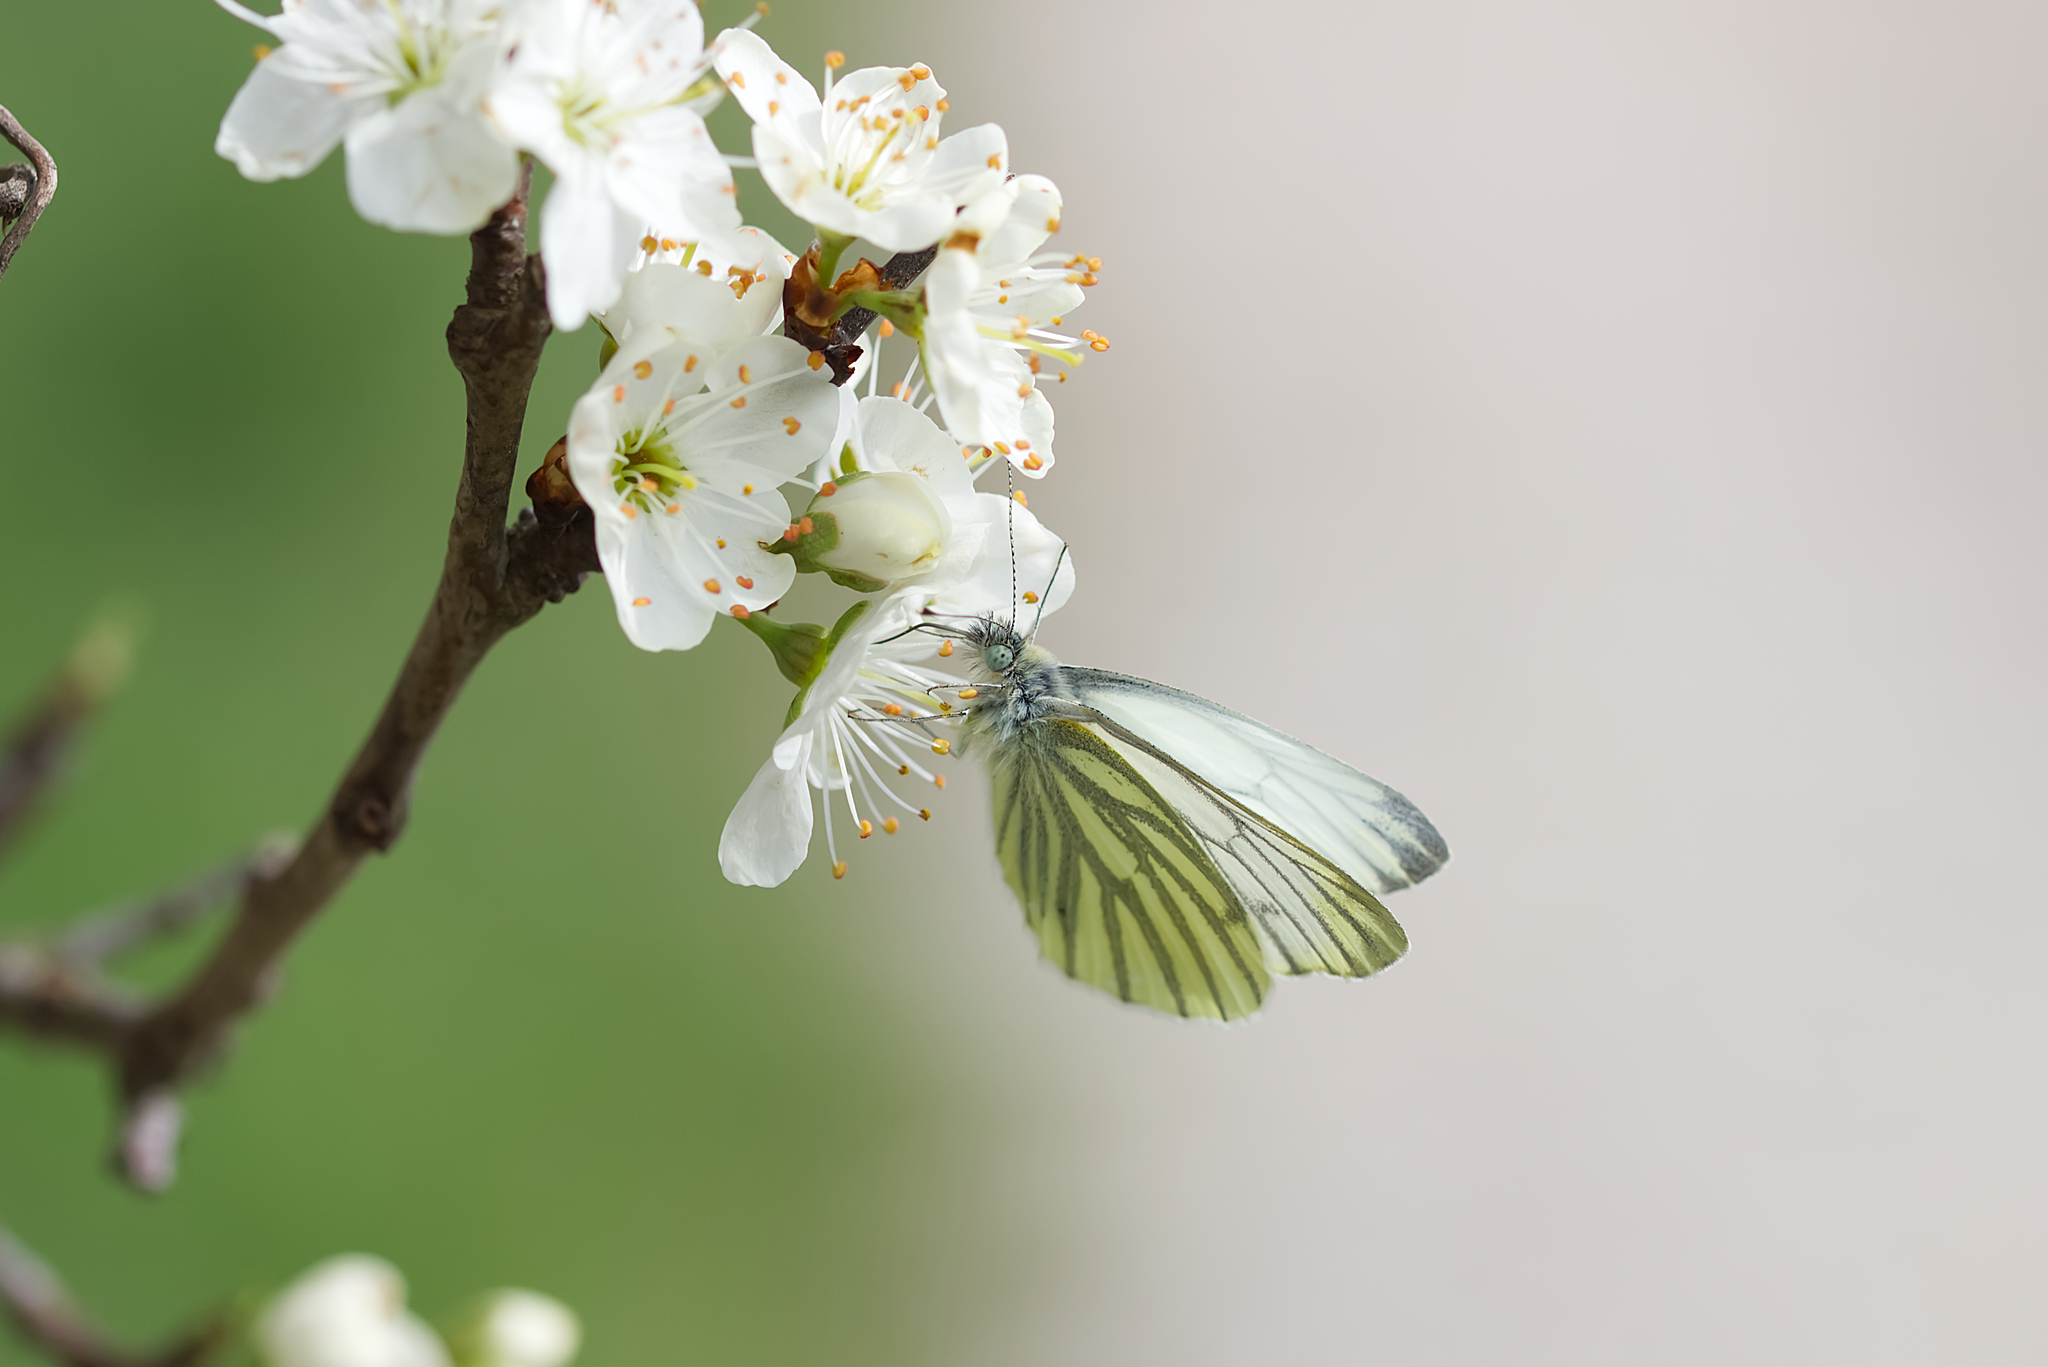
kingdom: Animalia
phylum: Arthropoda
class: Insecta
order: Lepidoptera
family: Pieridae
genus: Pieris
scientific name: Pieris napi
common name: Green-veined white
